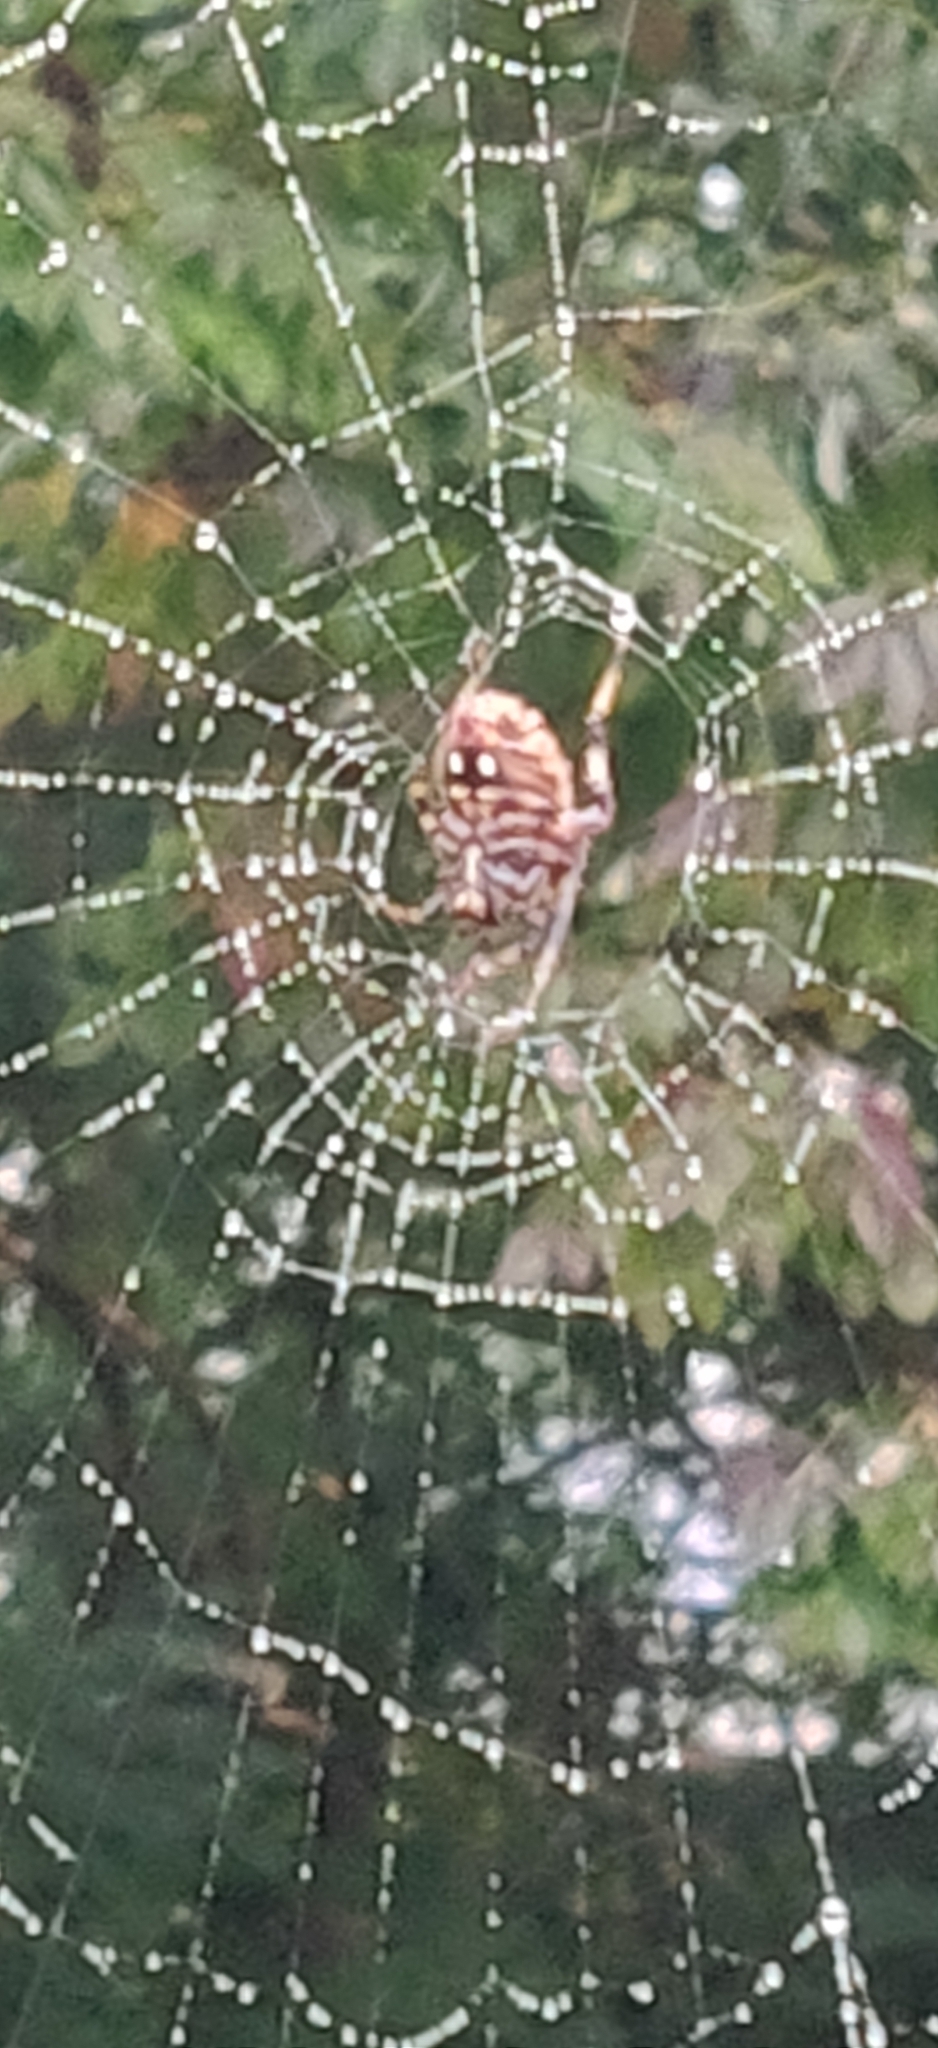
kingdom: Animalia
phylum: Arthropoda
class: Arachnida
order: Araneae
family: Araneidae
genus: Neoscona
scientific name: Neoscona crucifera
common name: Spotted orbweaver
